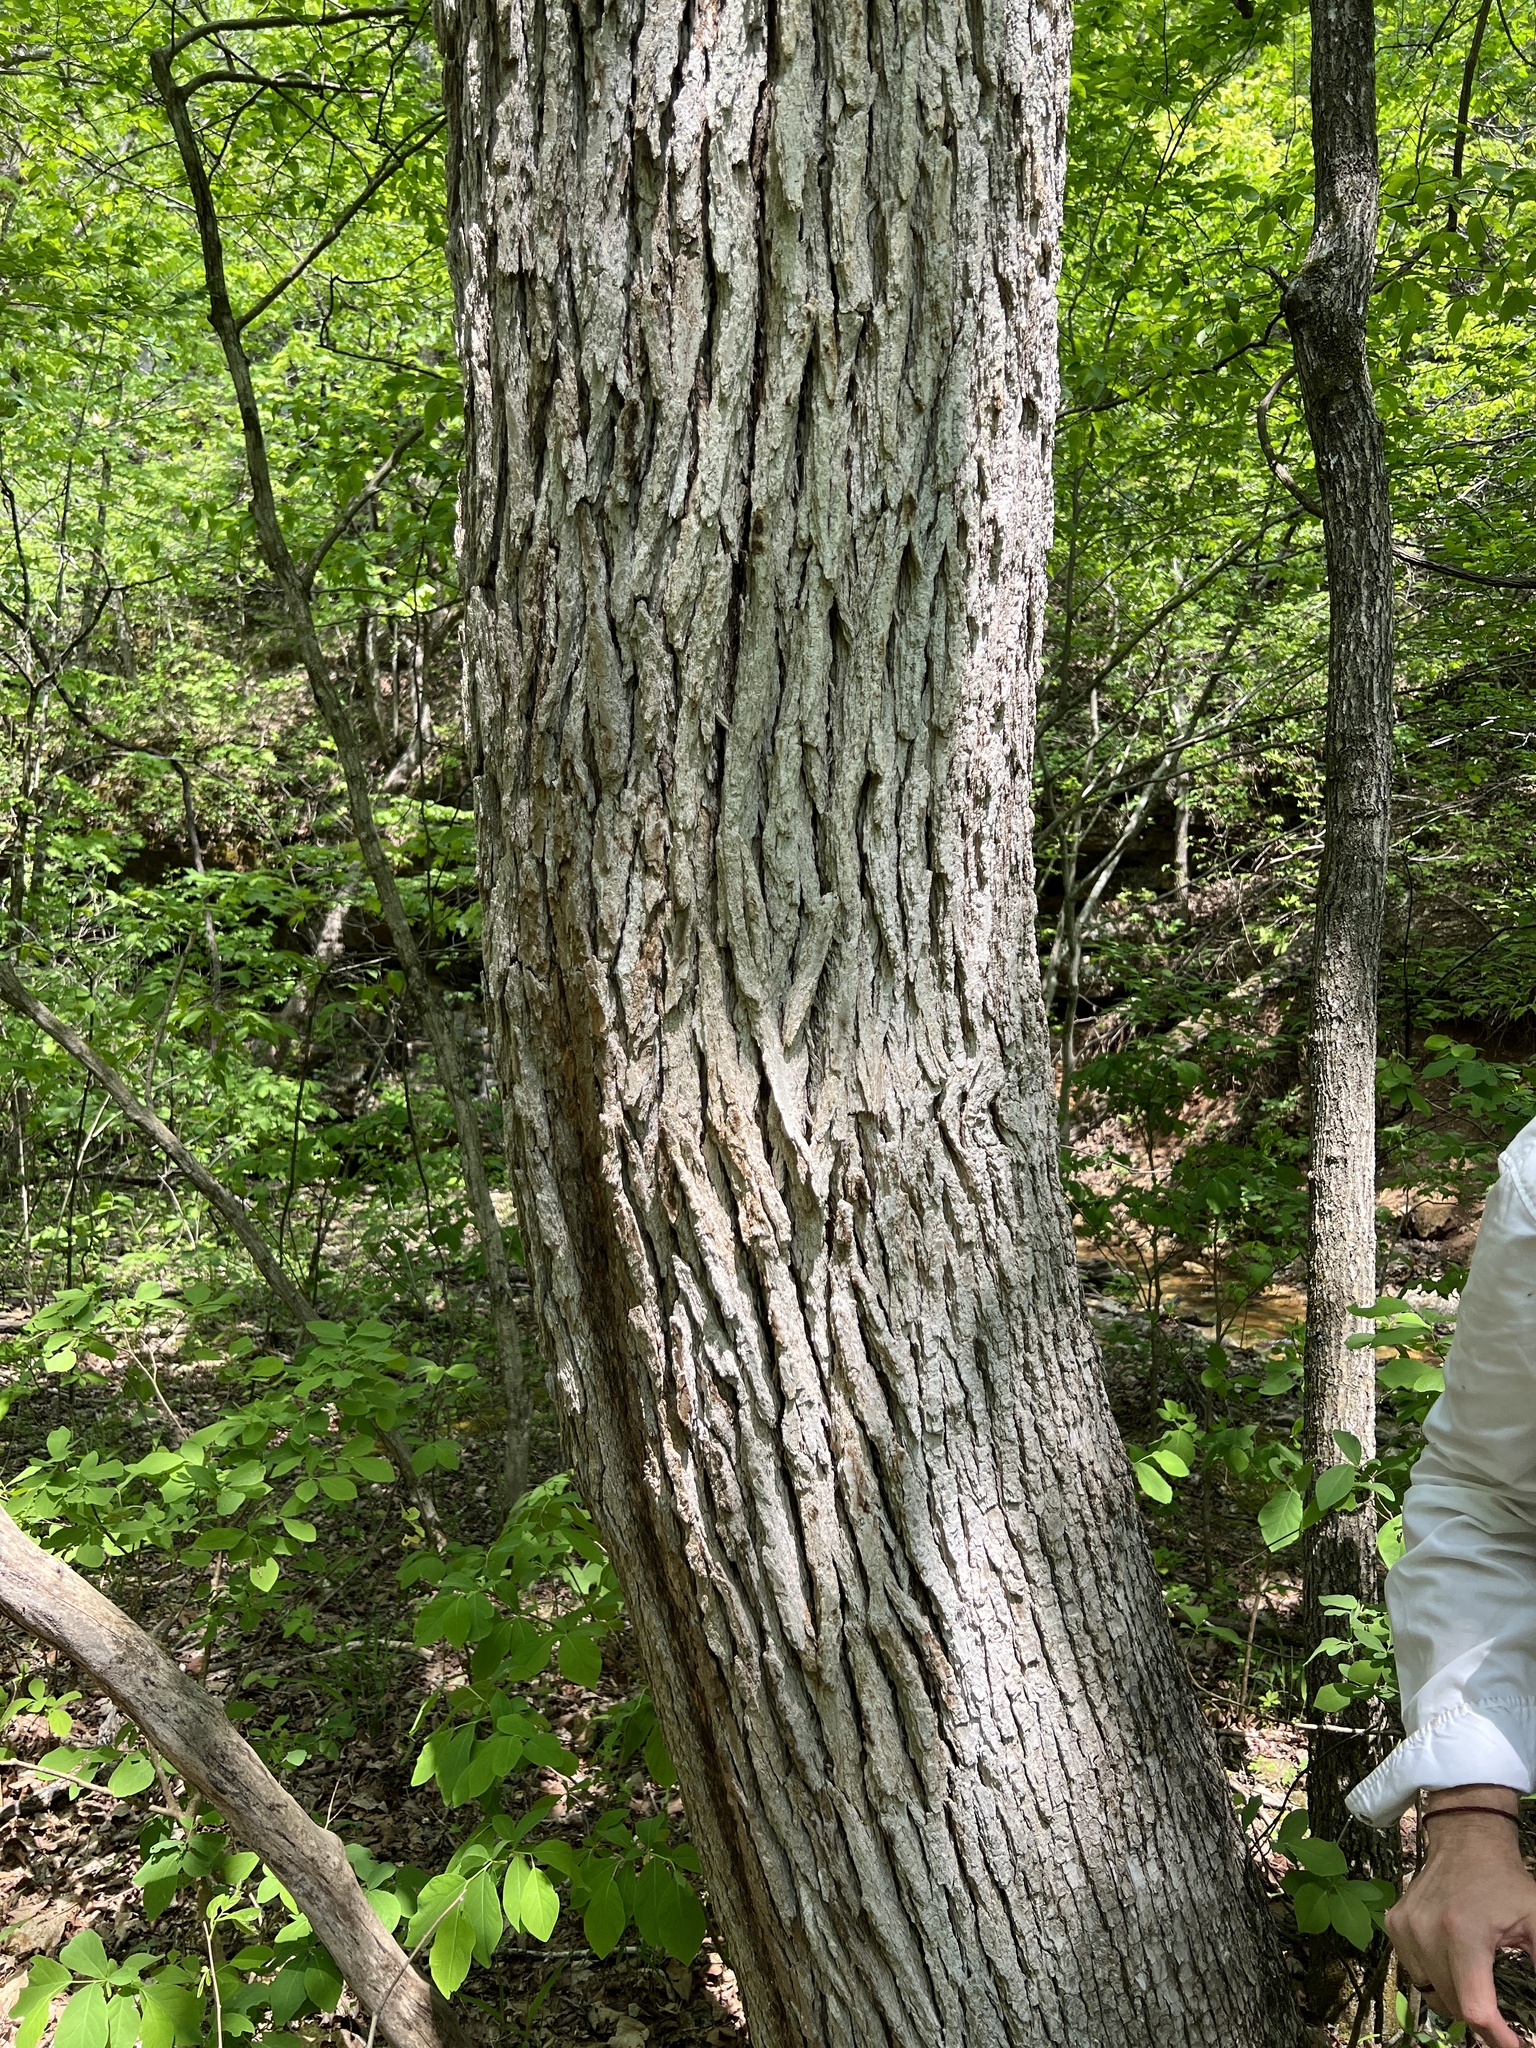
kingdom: Plantae
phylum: Tracheophyta
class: Magnoliopsida
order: Lamiales
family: Oleaceae
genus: Fraxinus
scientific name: Fraxinus quadrangulata
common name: Blue ash
